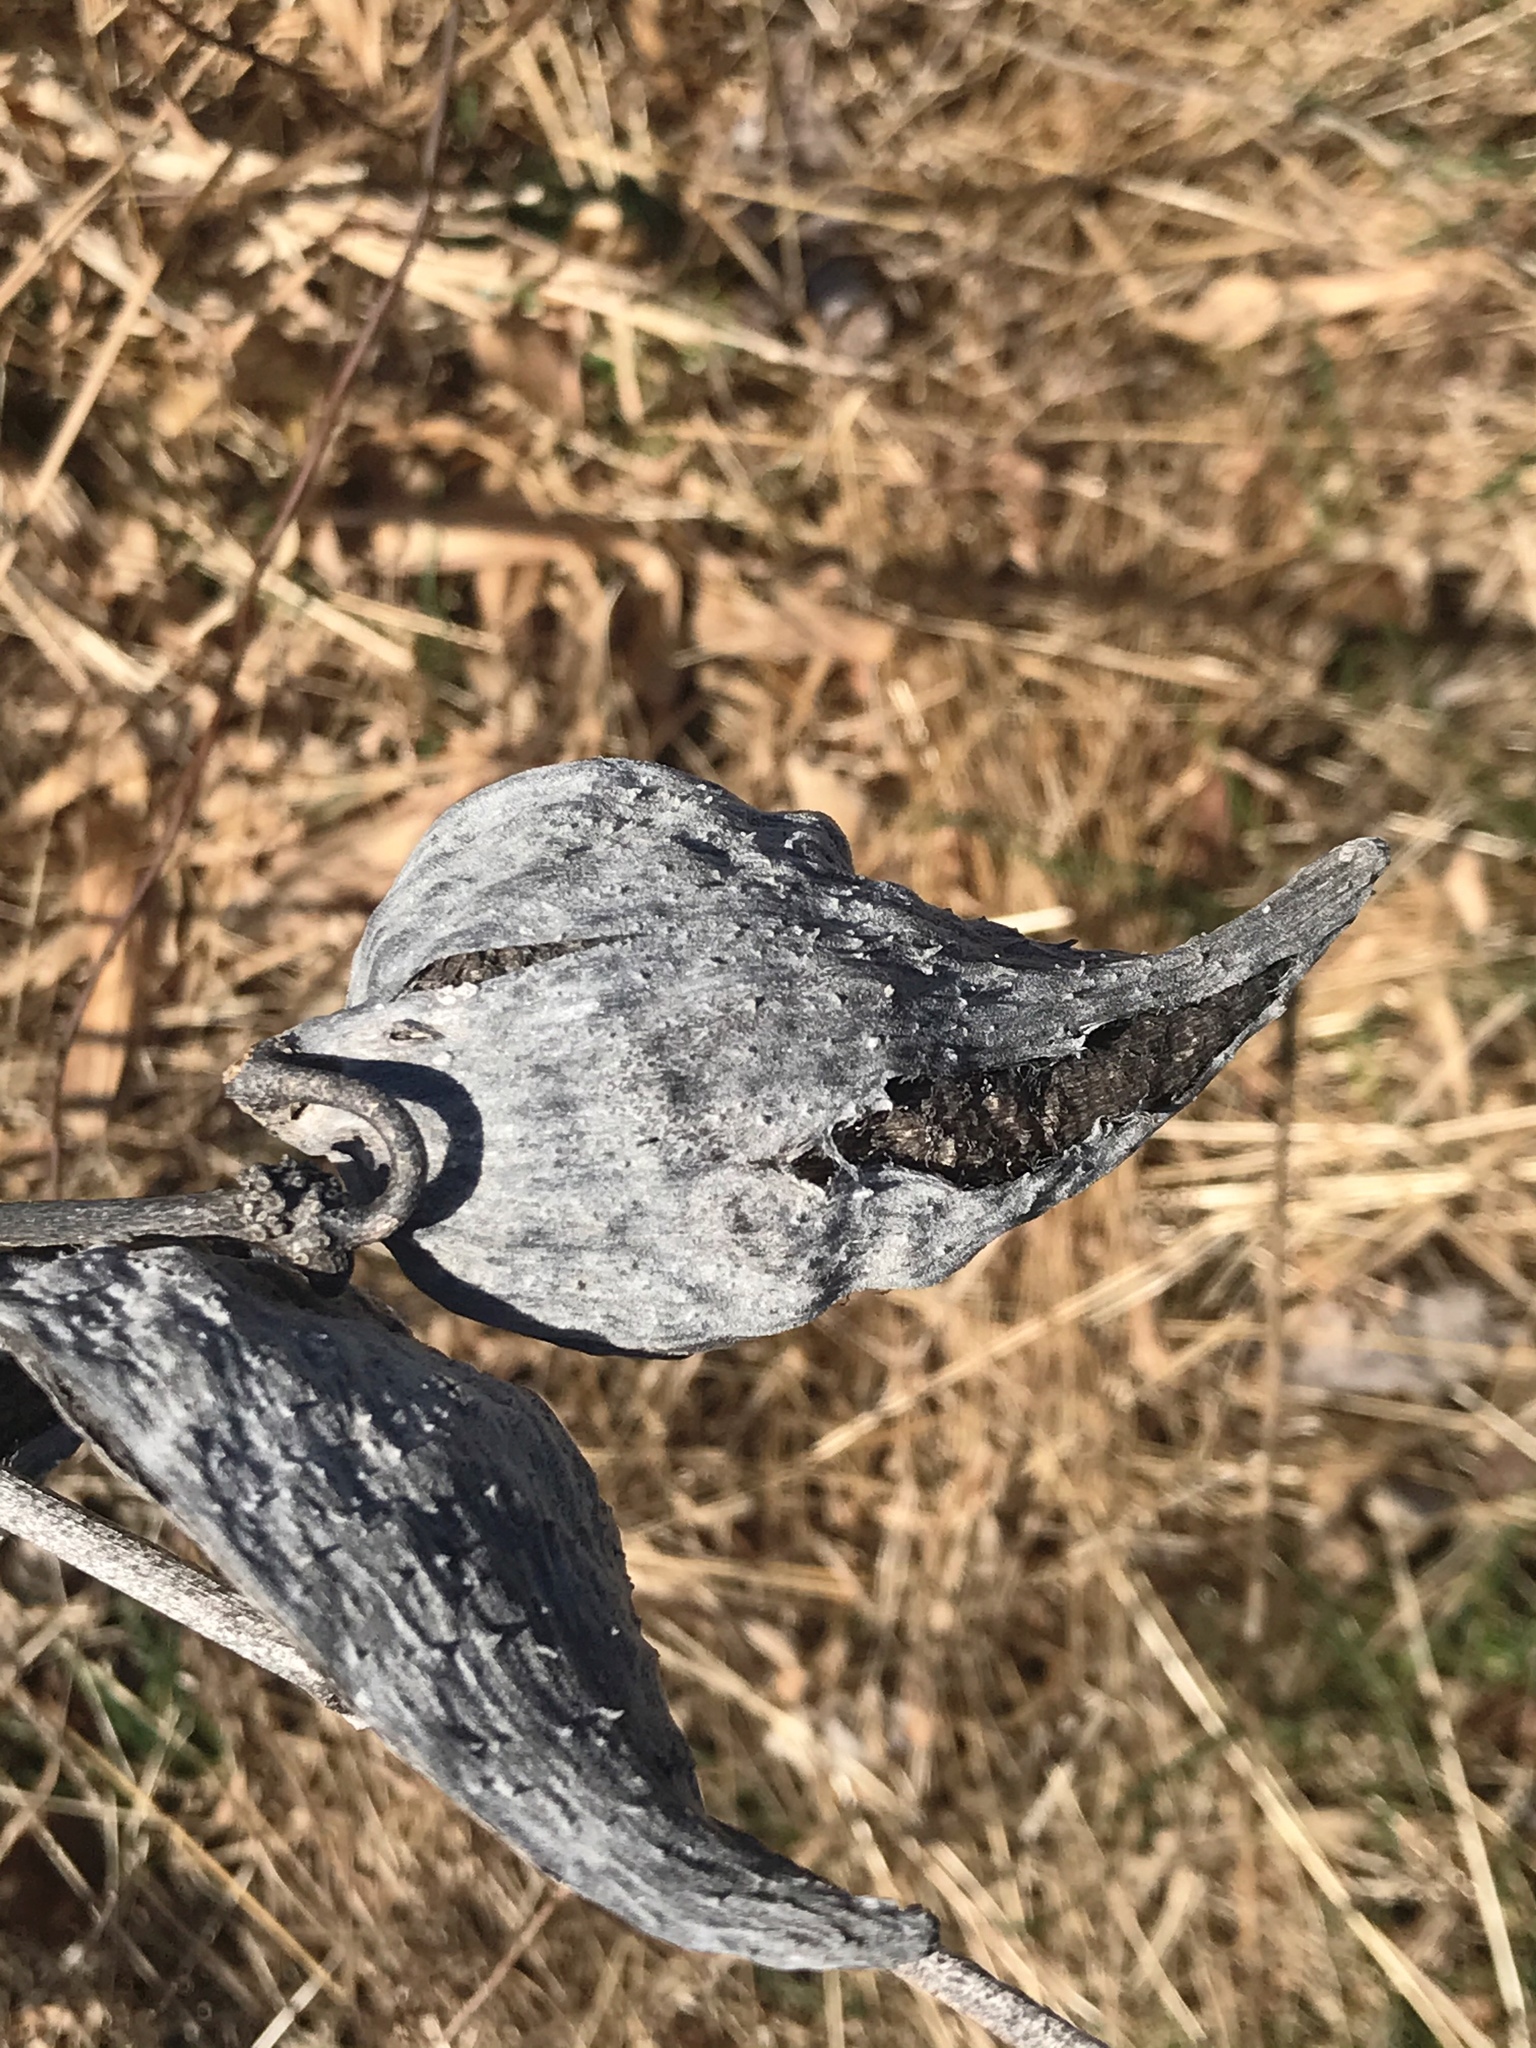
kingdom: Plantae
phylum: Tracheophyta
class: Magnoliopsida
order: Gentianales
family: Apocynaceae
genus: Asclepias
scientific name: Asclepias syriaca
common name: Common milkweed
